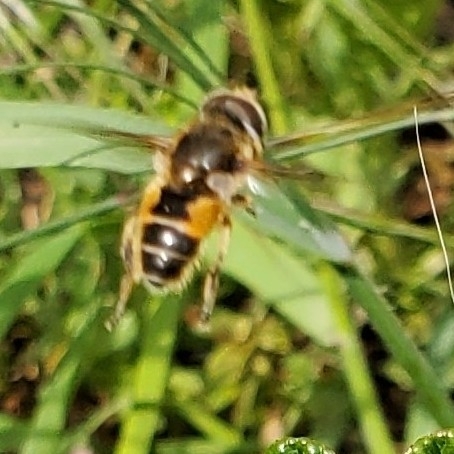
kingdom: Animalia
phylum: Arthropoda
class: Insecta
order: Diptera
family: Syrphidae
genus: Eristalis
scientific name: Eristalis arbustorum
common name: Hover fly
